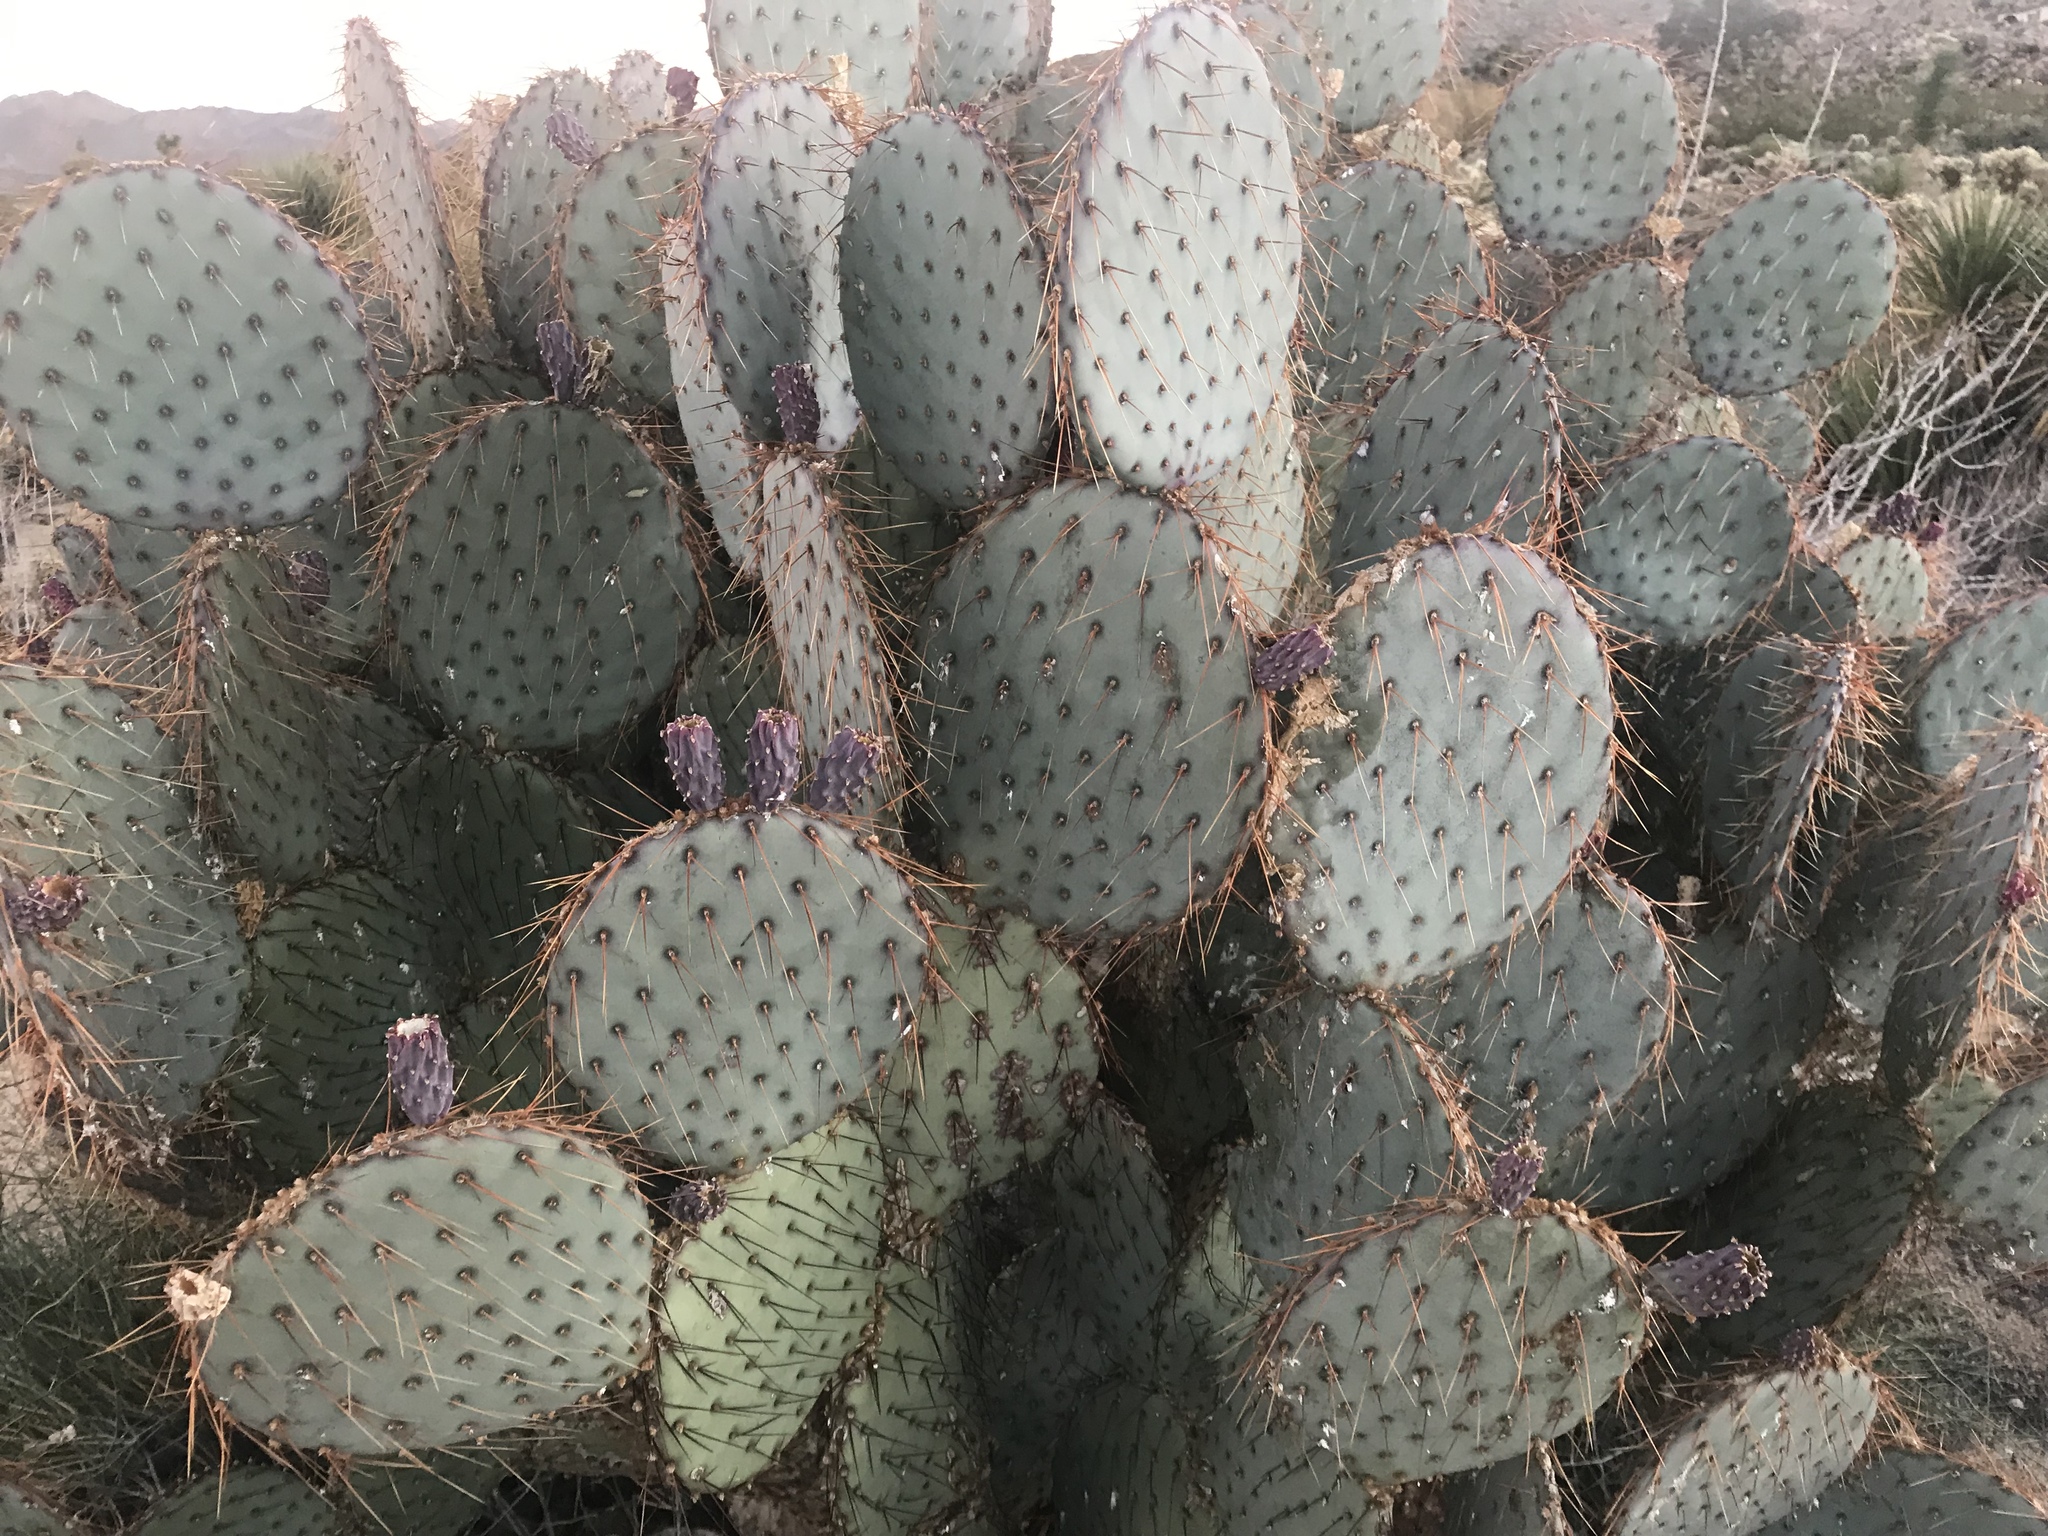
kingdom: Plantae
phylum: Tracheophyta
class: Magnoliopsida
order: Caryophyllales
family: Cactaceae
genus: Opuntia
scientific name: Opuntia chlorotica
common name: Dollar-joint prickly-pear
